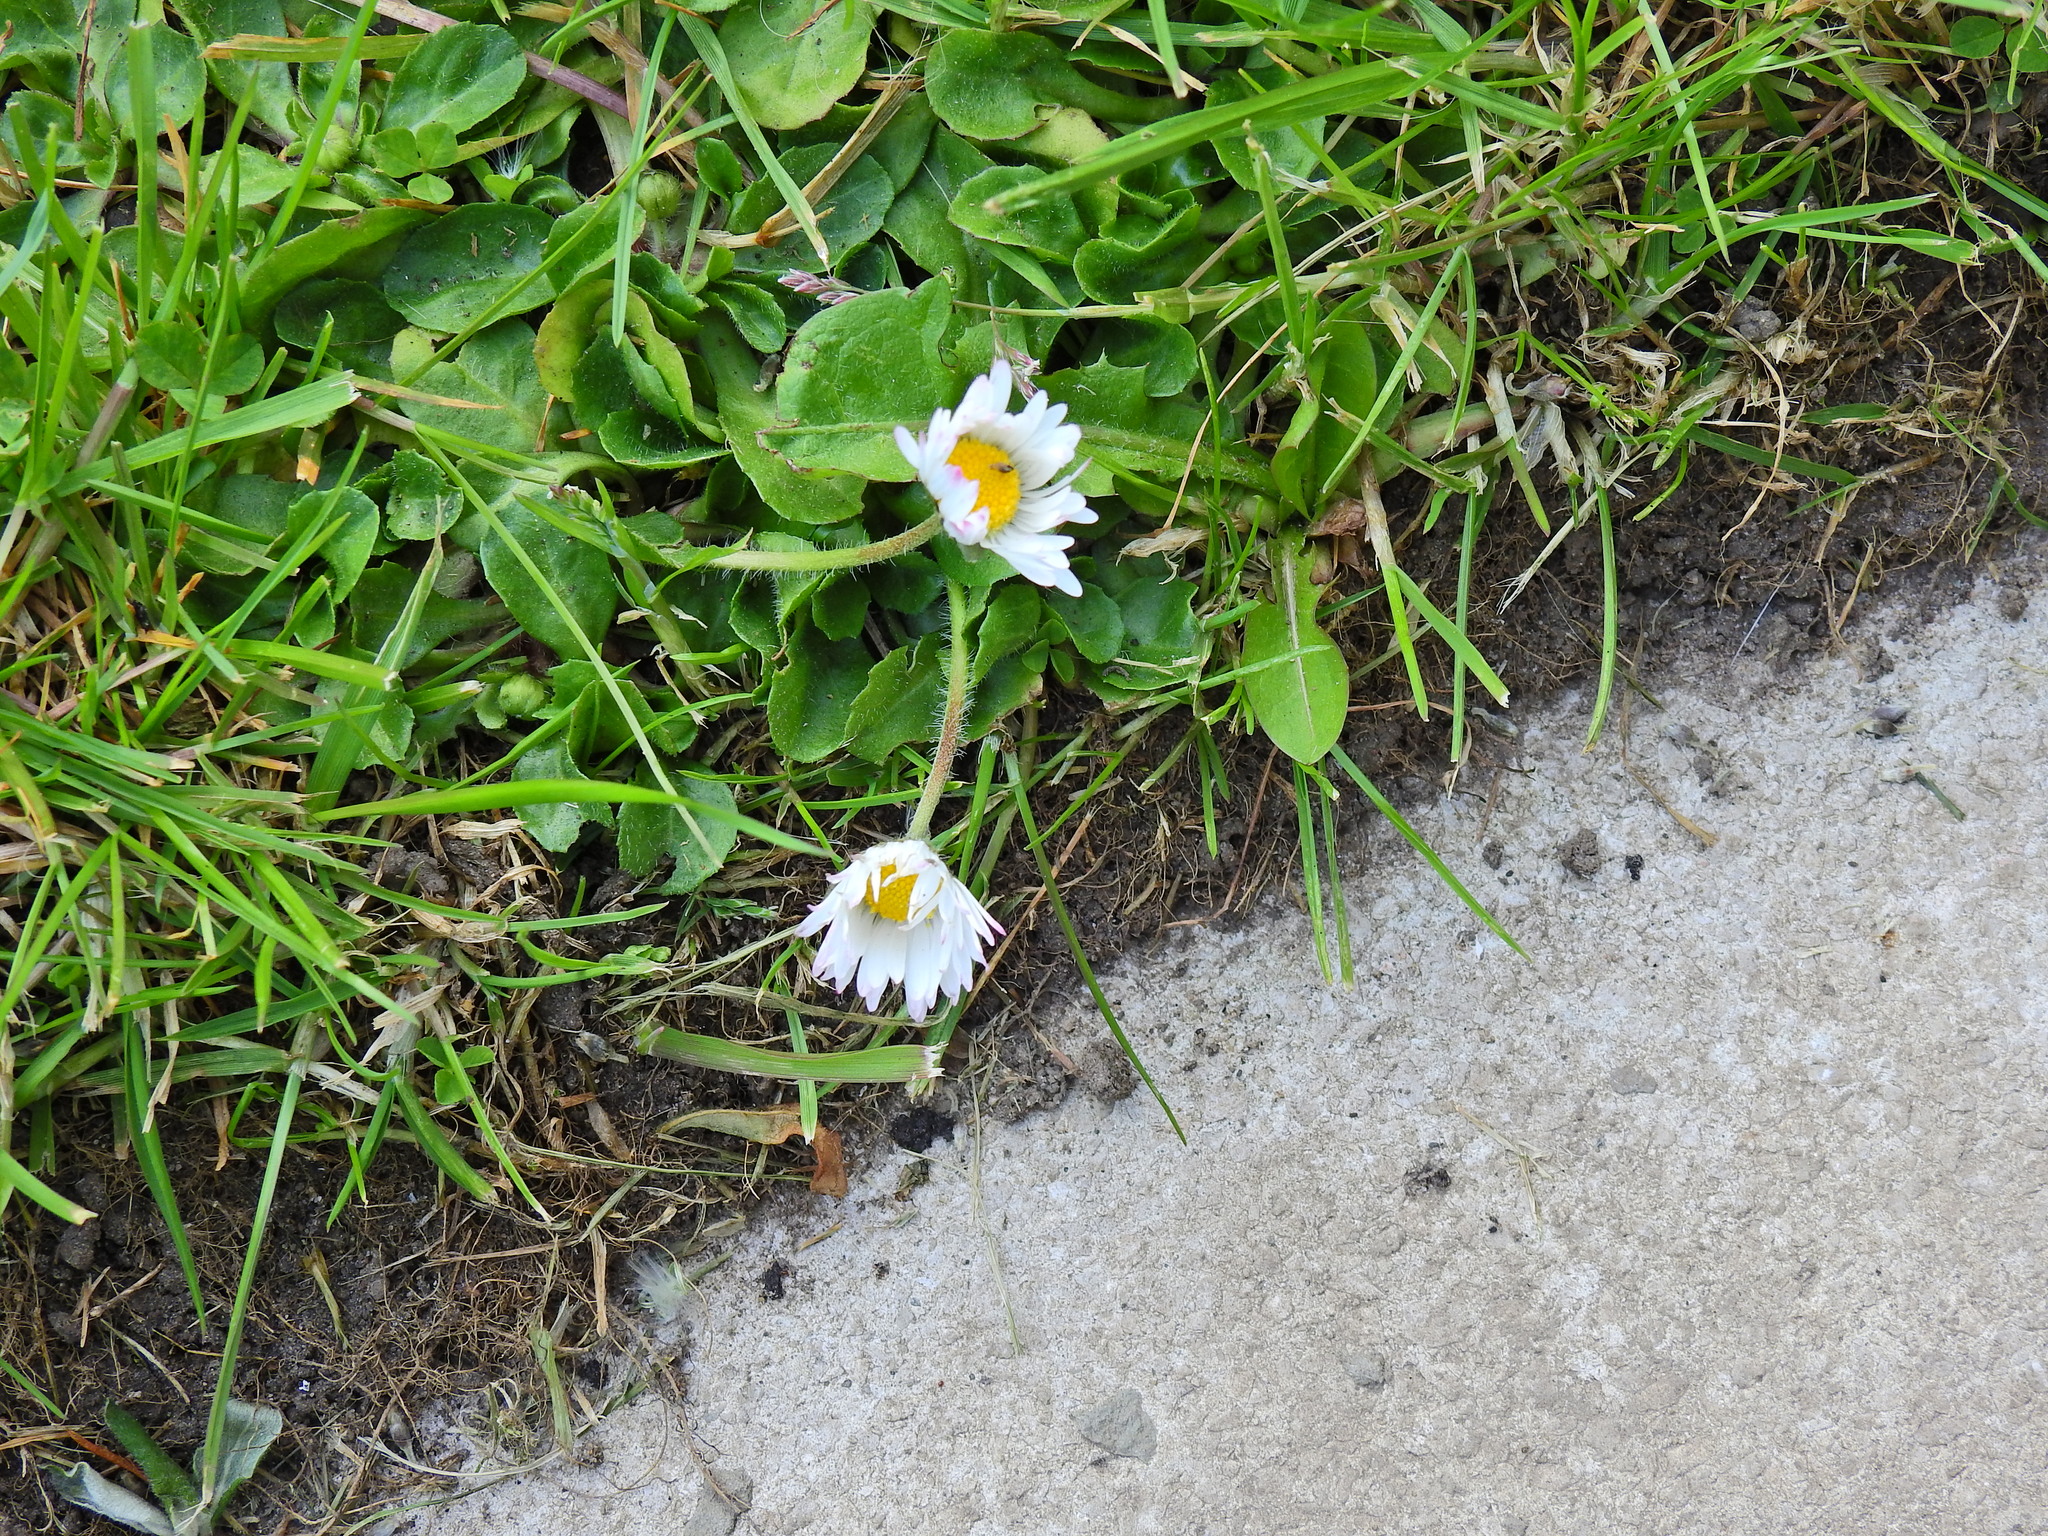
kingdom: Plantae
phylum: Tracheophyta
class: Magnoliopsida
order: Asterales
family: Asteraceae
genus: Bellis
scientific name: Bellis perennis
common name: Lawndaisy
